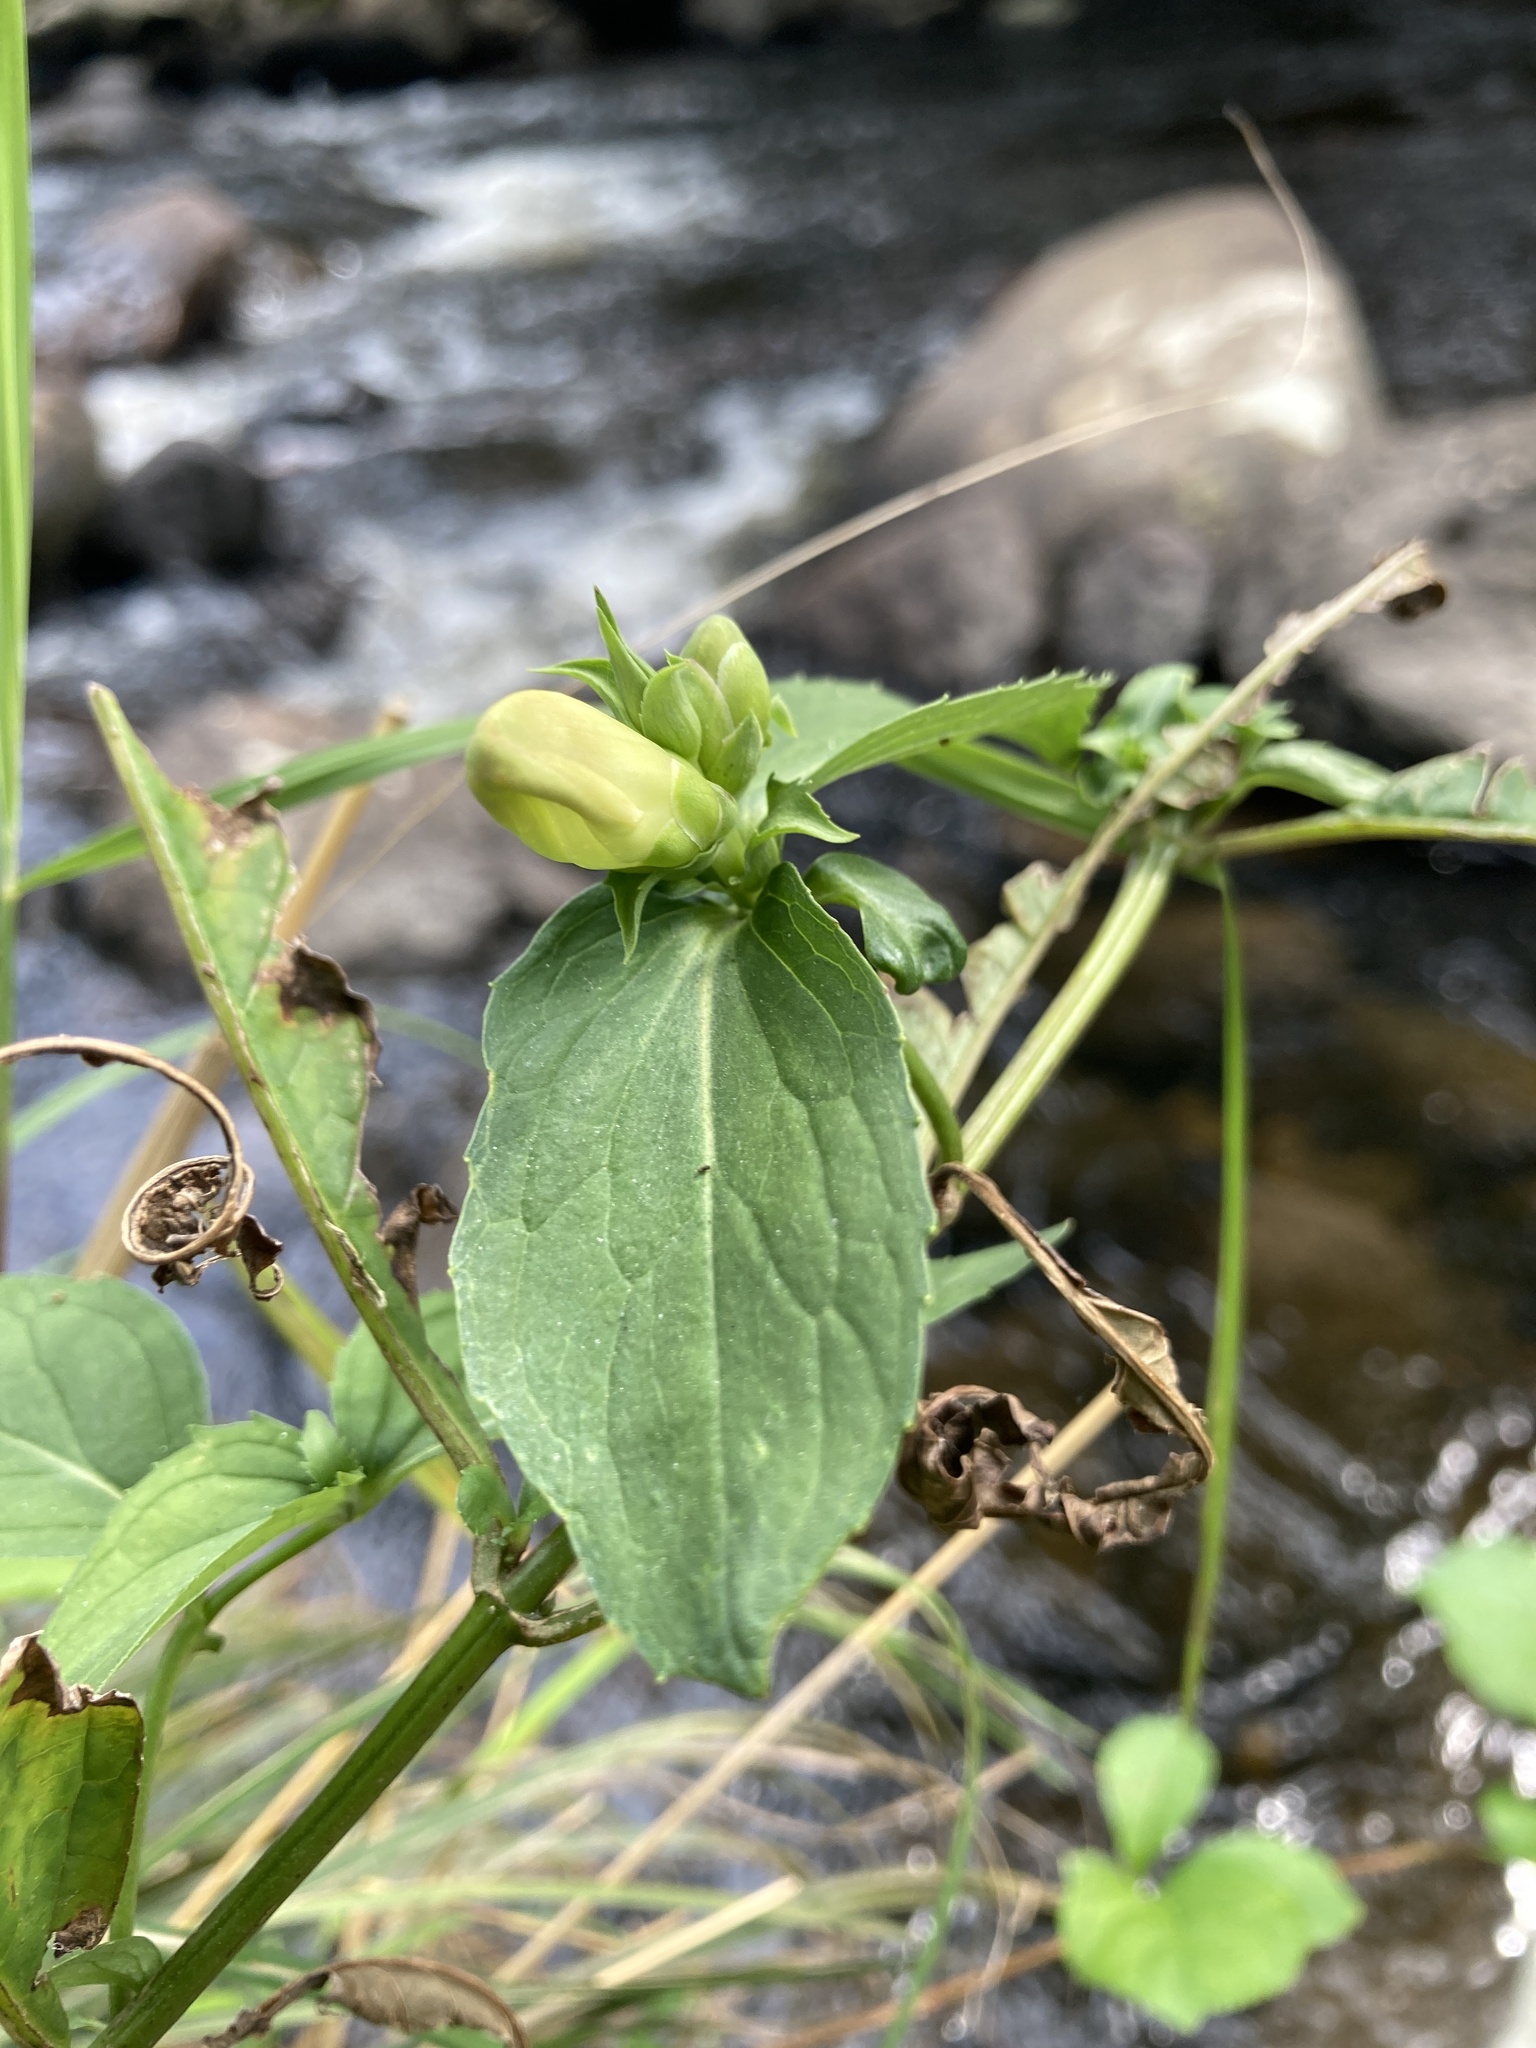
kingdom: Plantae
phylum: Tracheophyta
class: Magnoliopsida
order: Lamiales
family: Plantaginaceae
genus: Chelone
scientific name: Chelone glabra
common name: Snakehead
